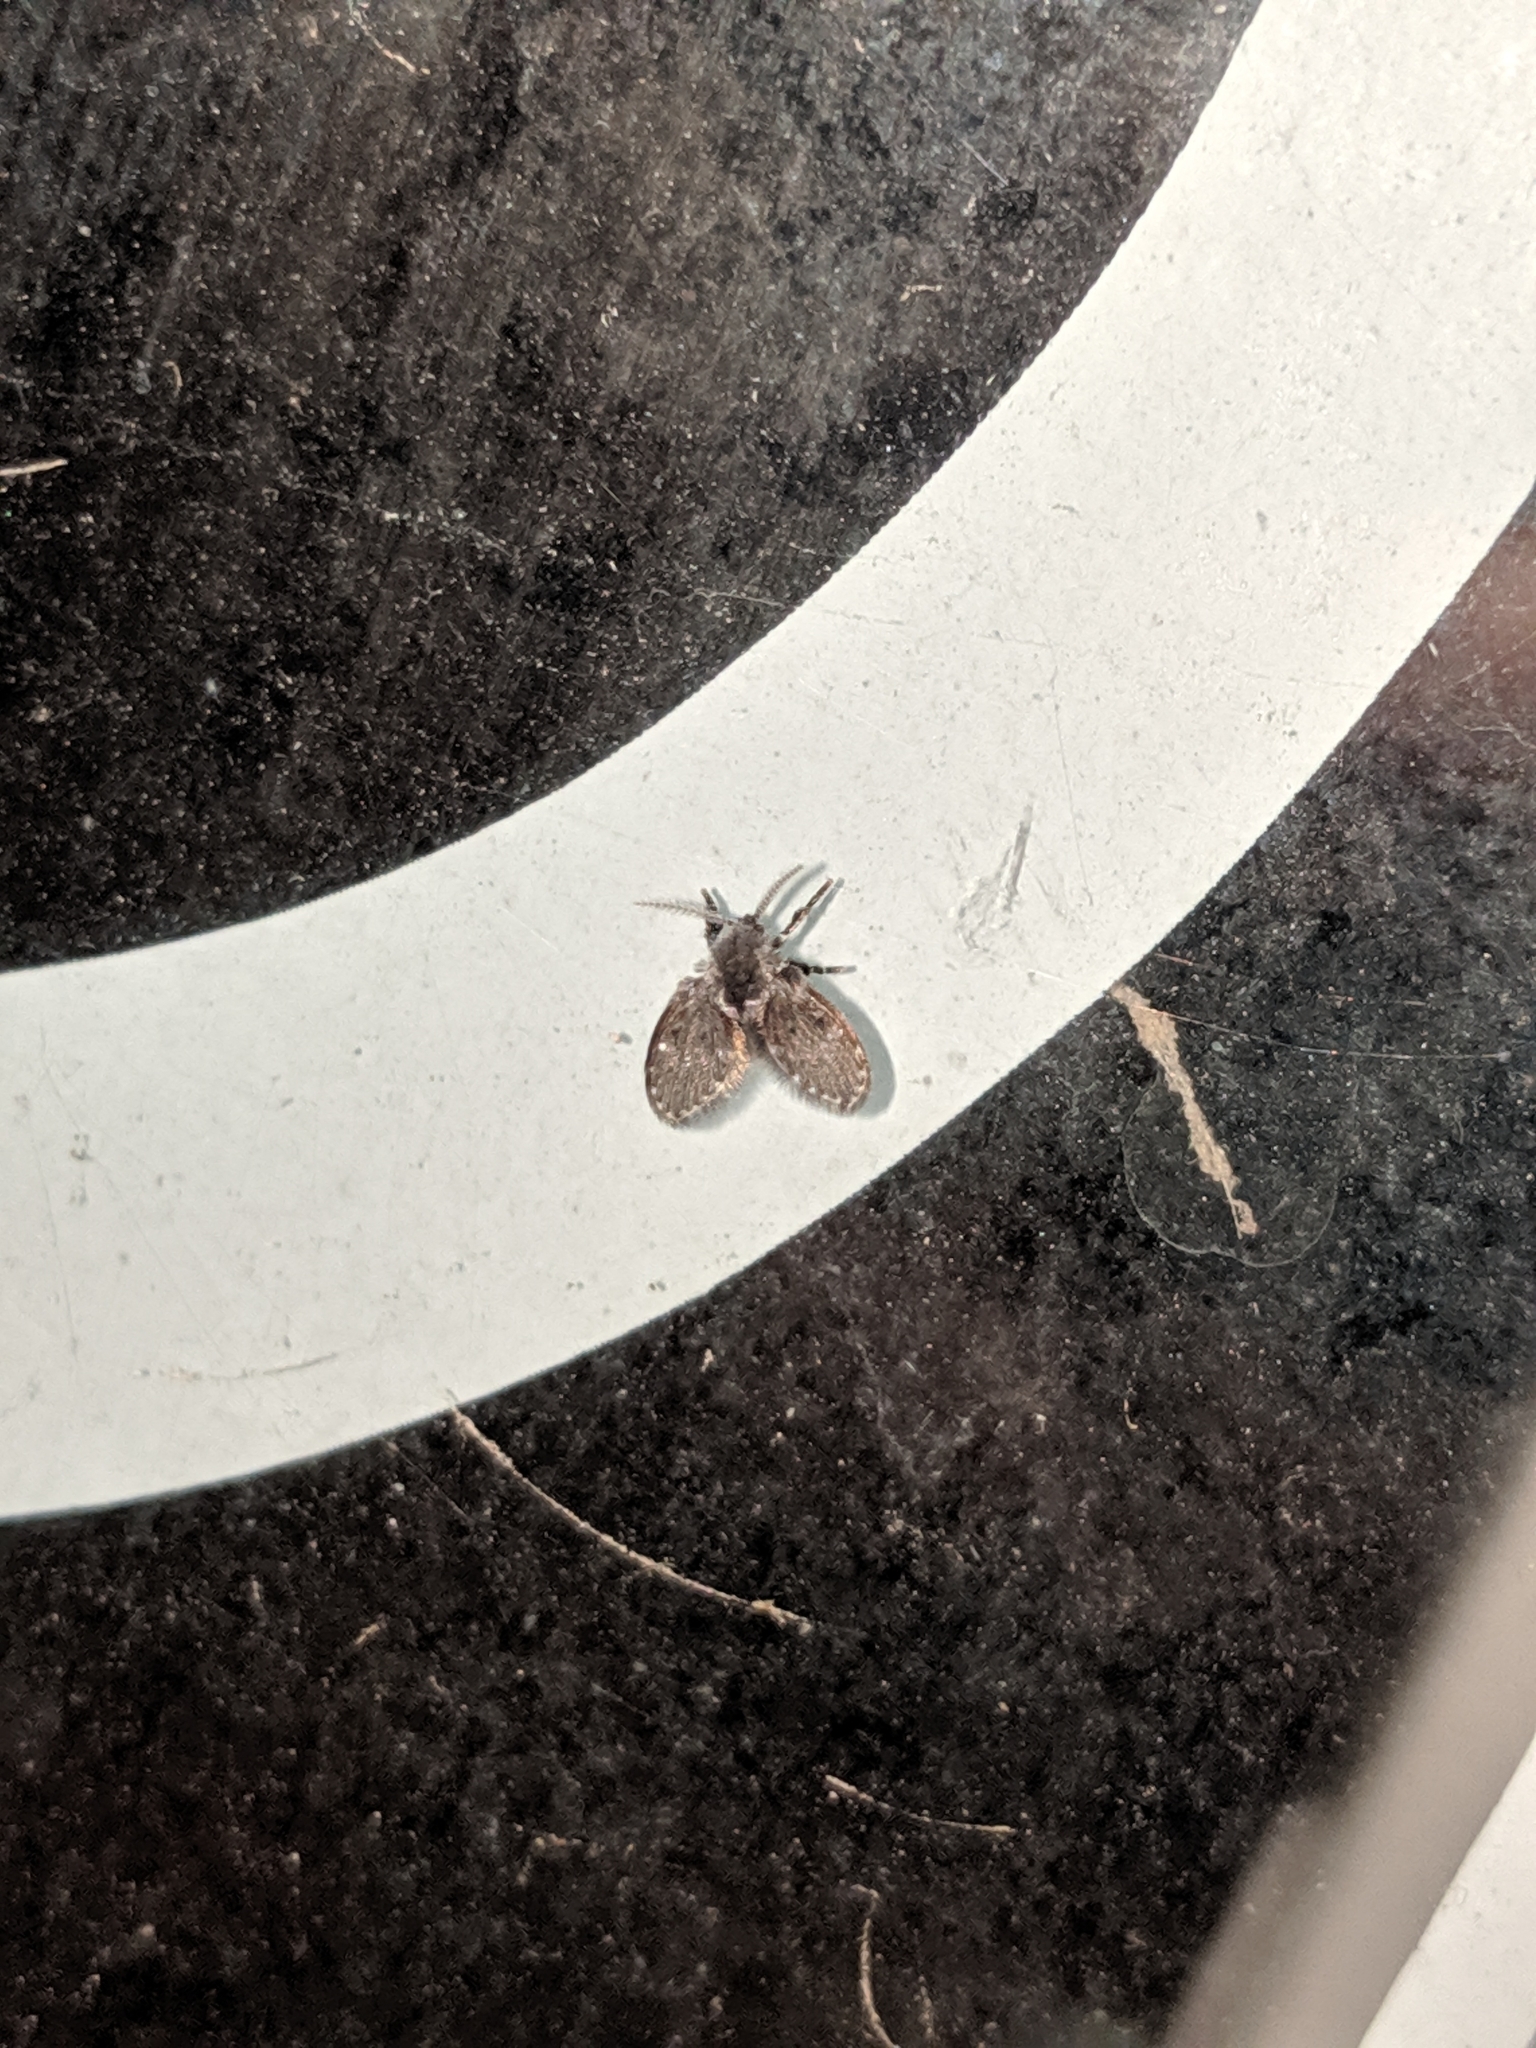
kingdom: Animalia
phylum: Arthropoda
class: Insecta
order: Diptera
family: Psychodidae
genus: Clogmia
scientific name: Clogmia albipunctatus
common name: White-spotted moth fly
